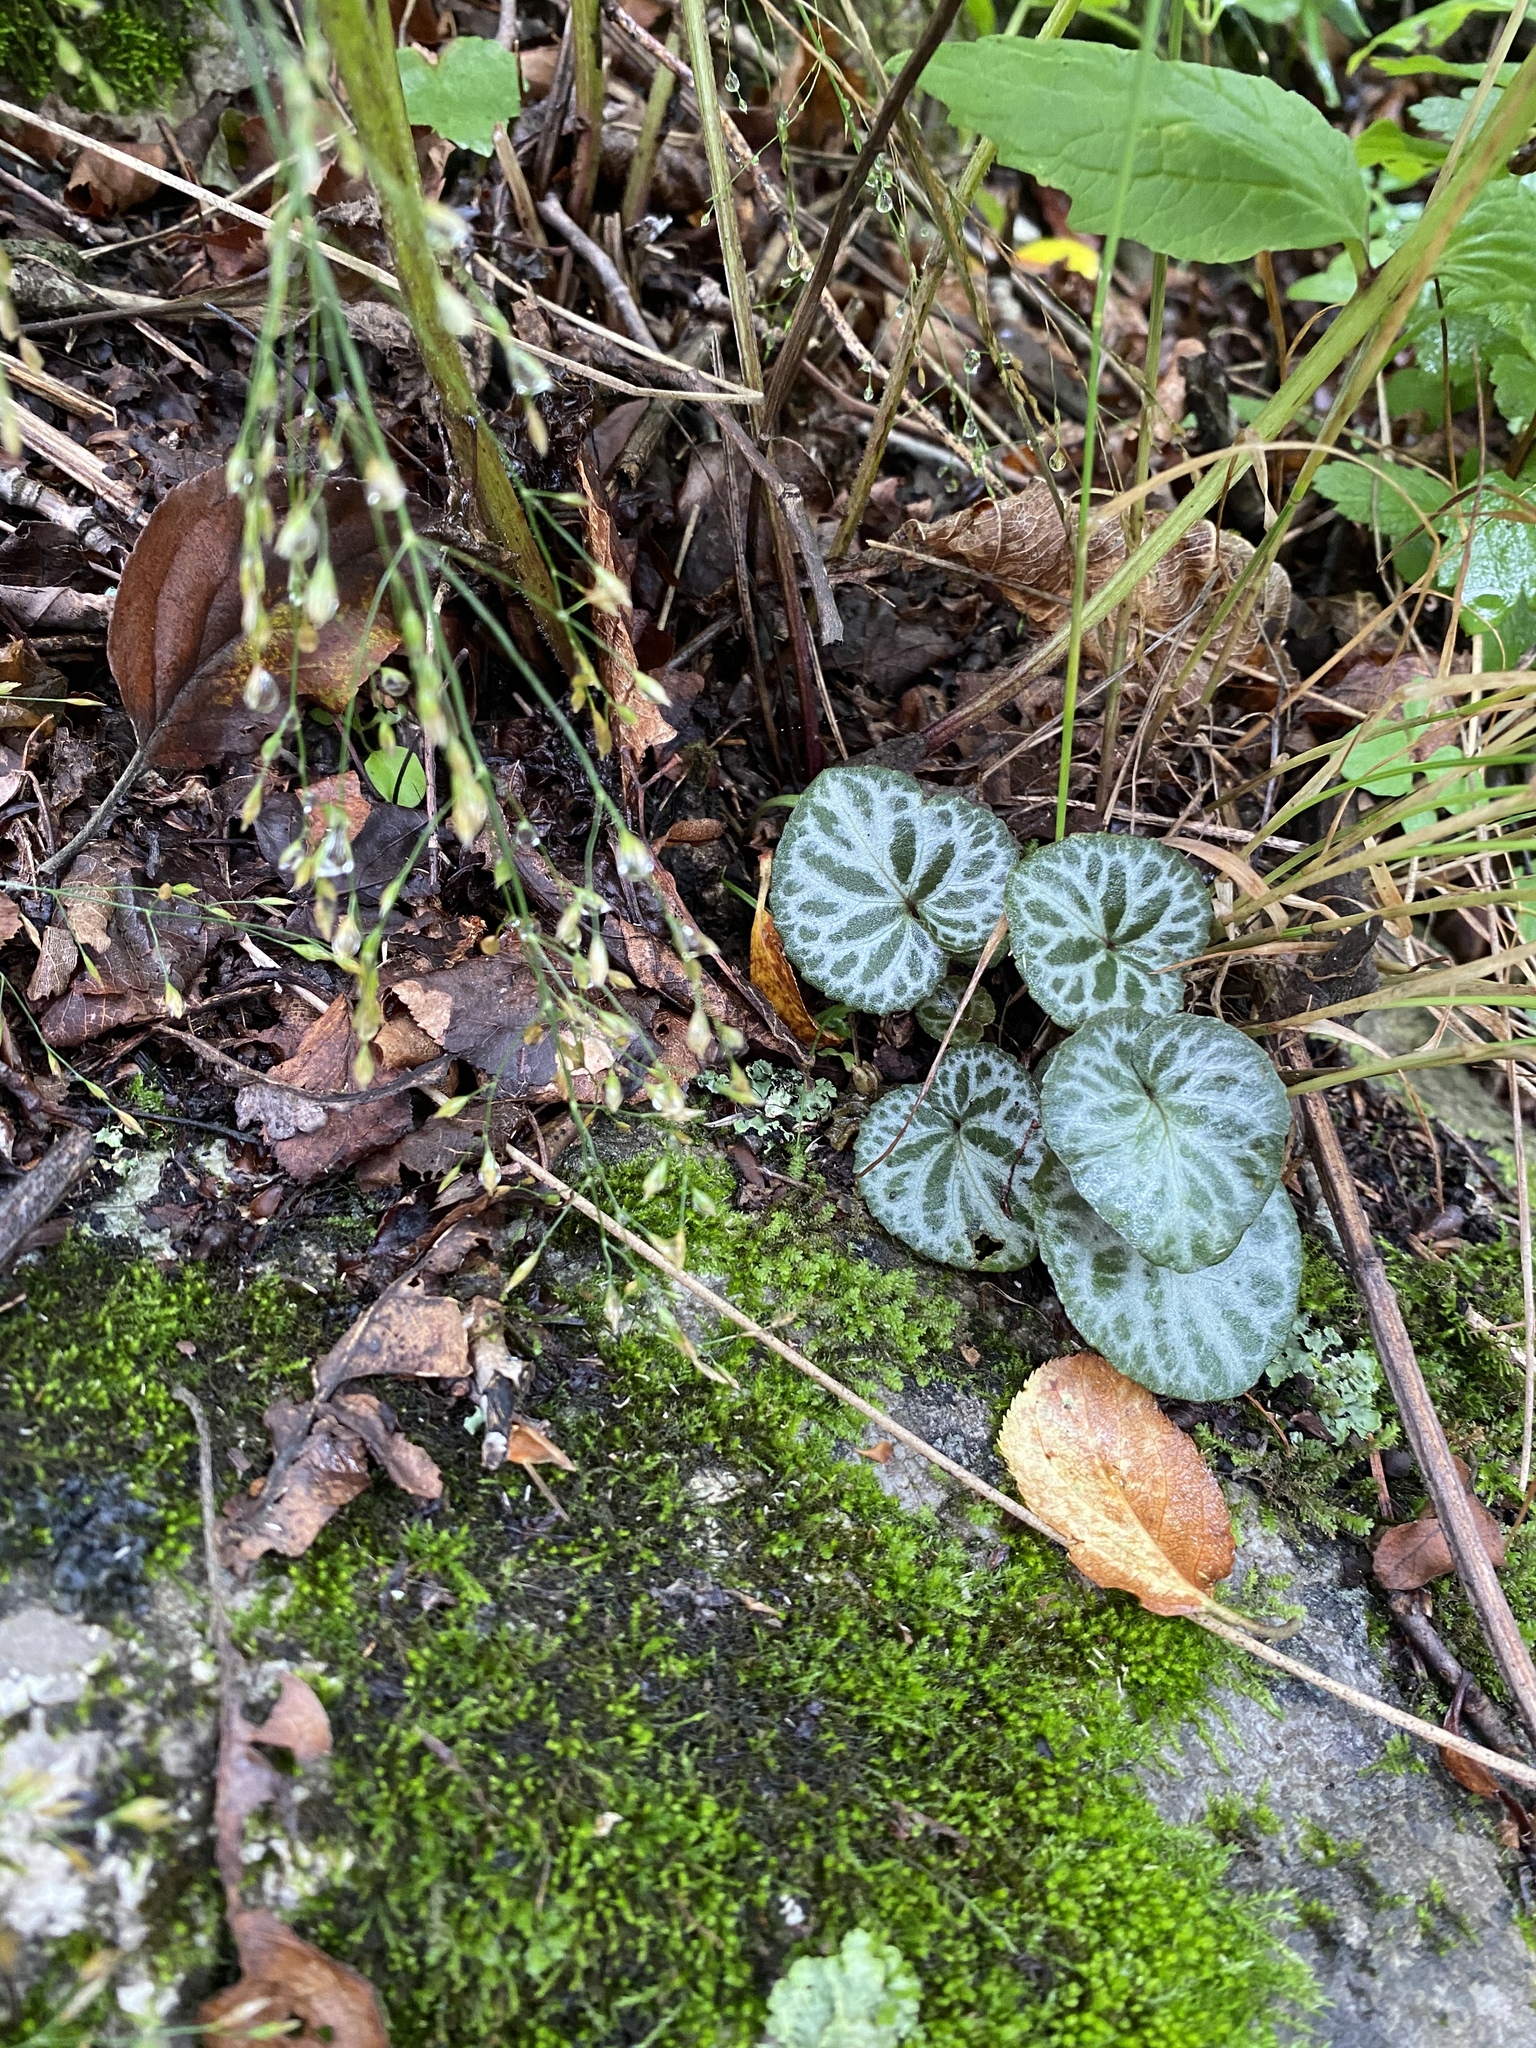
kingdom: Plantae
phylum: Tracheophyta
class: Magnoliopsida
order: Malpighiales
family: Violaceae
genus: Viola
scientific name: Viola variegata
